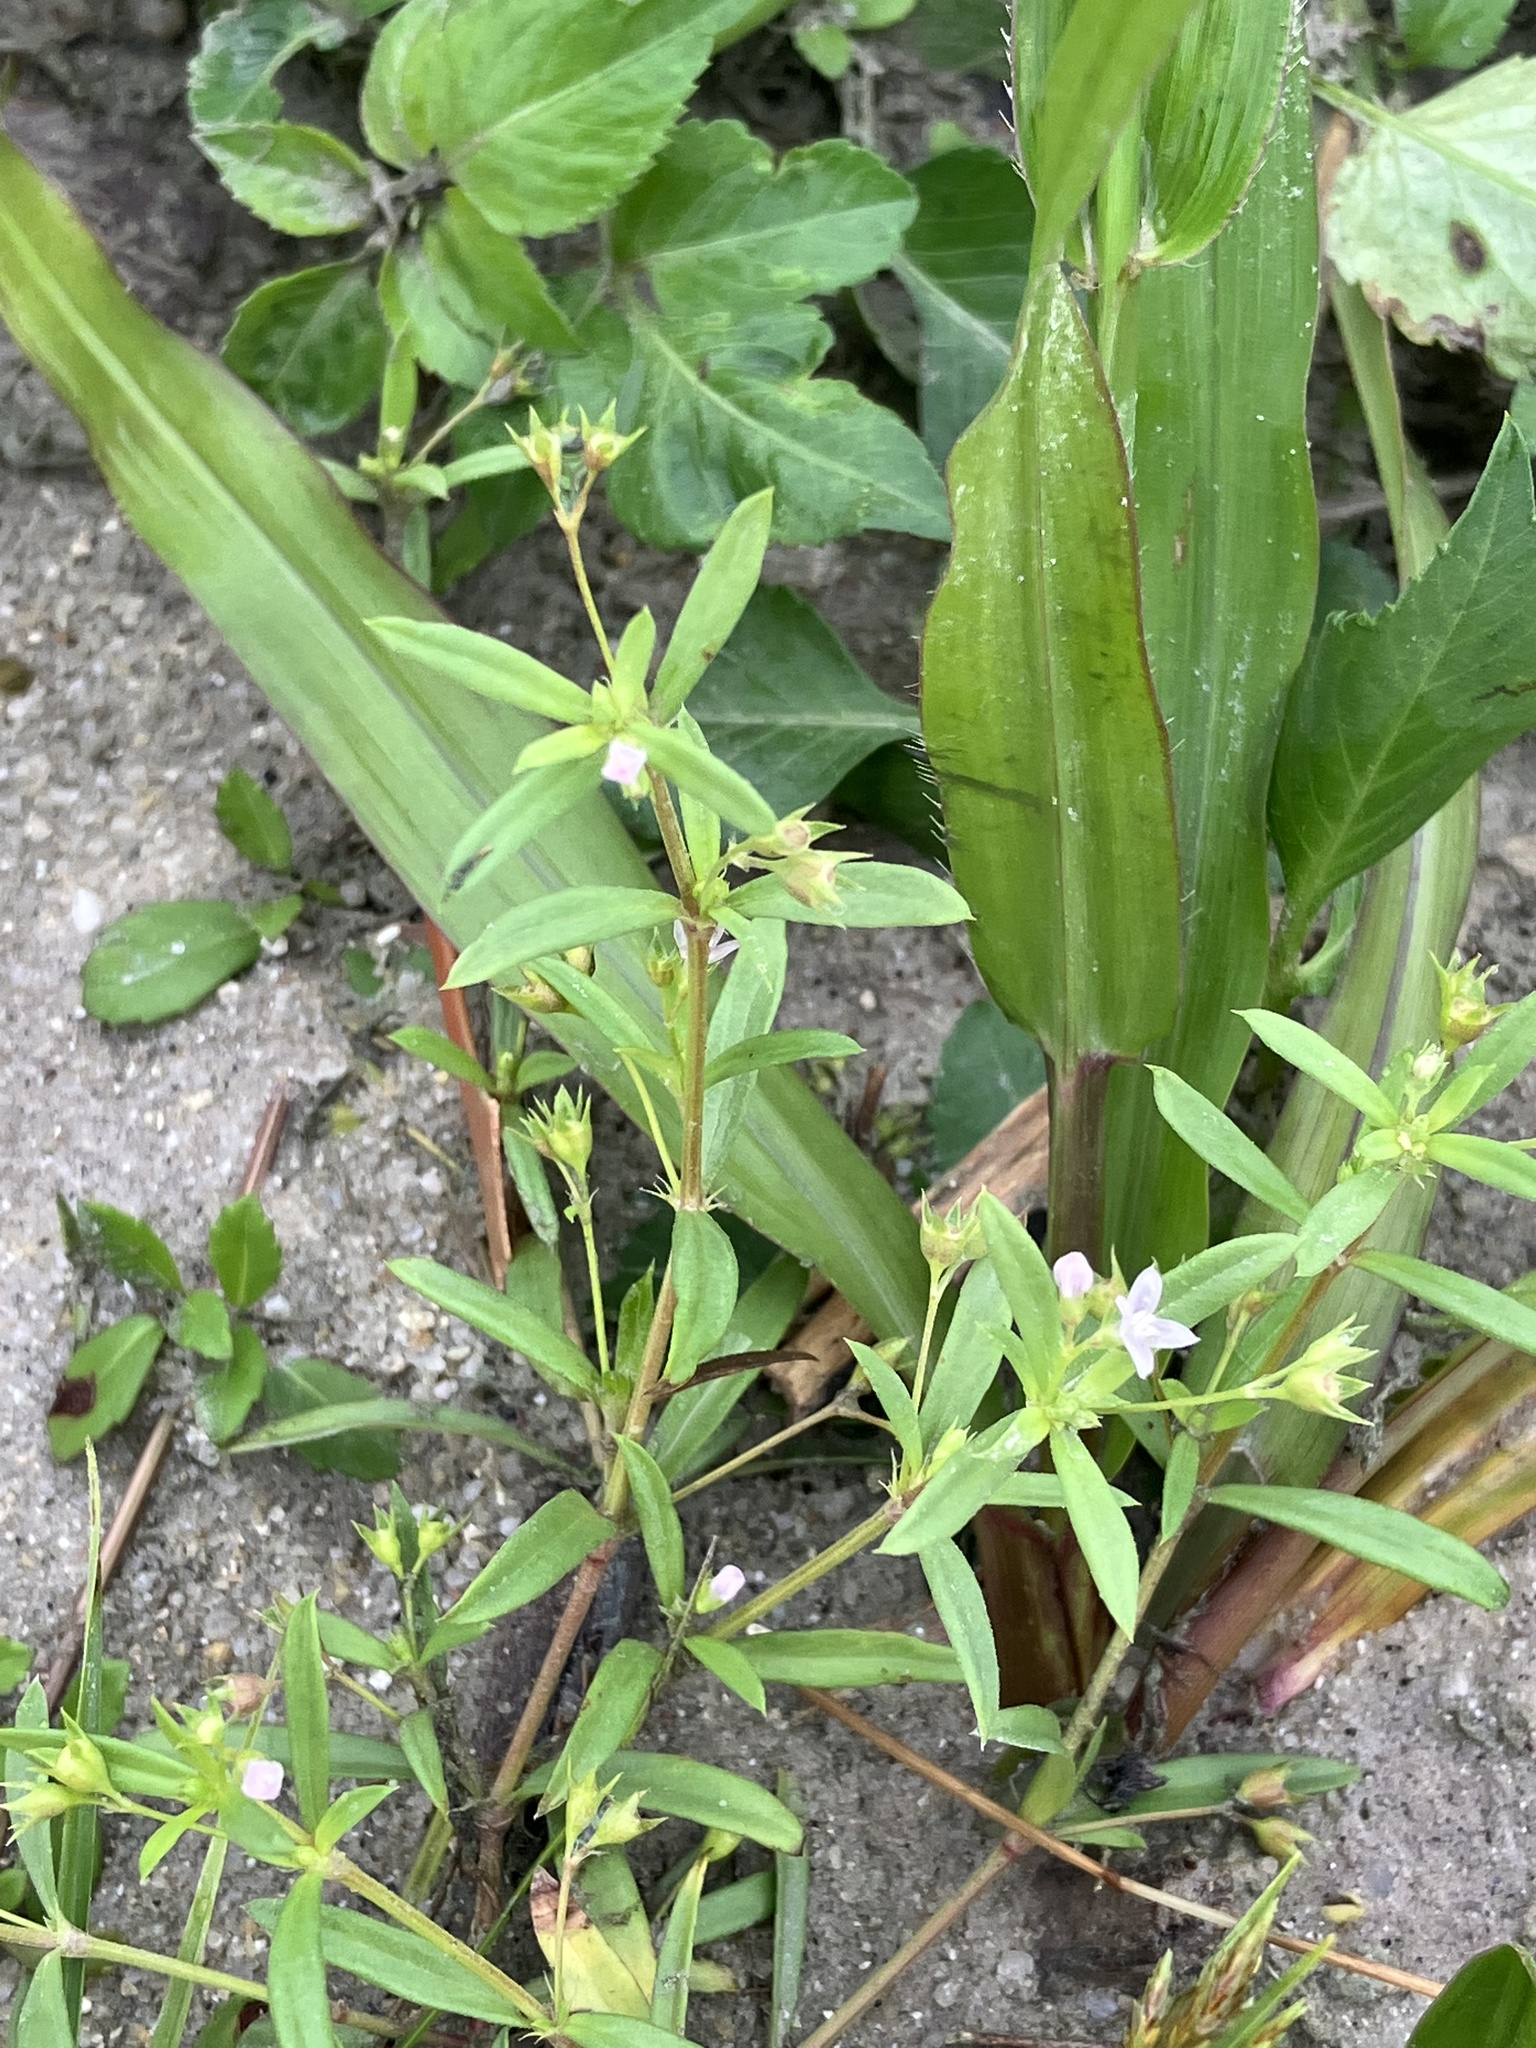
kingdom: Plantae
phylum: Tracheophyta
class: Magnoliopsida
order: Gentianales
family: Rubiaceae
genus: Oldenlandia
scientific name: Oldenlandia corymbosa
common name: Flat-top mille graines
